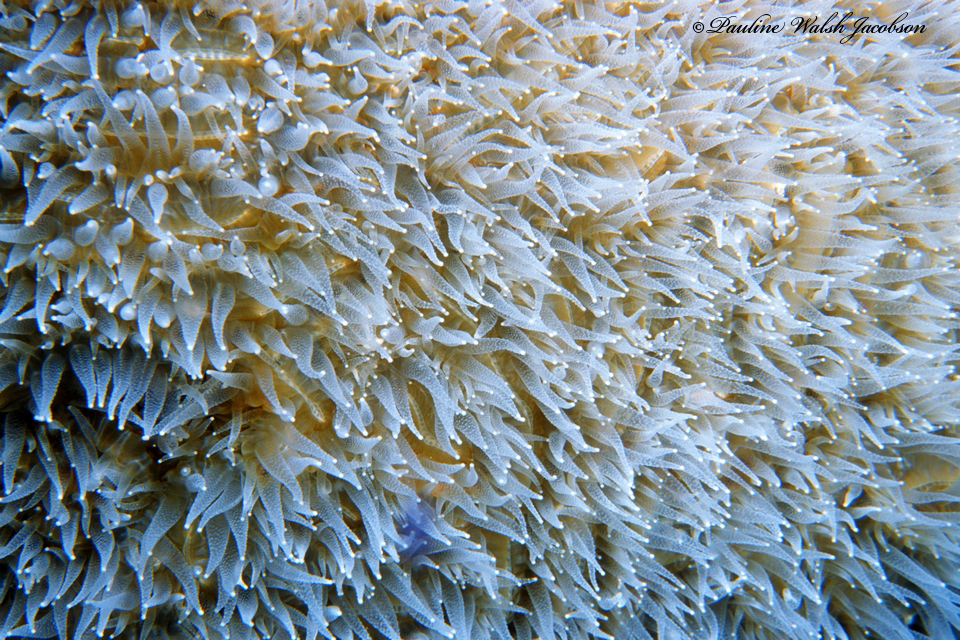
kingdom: Animalia
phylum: Cnidaria
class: Anthozoa
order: Scleractinia
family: Meandrinidae
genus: Dendrogyra
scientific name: Dendrogyra cylindrus
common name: Pillar coral
